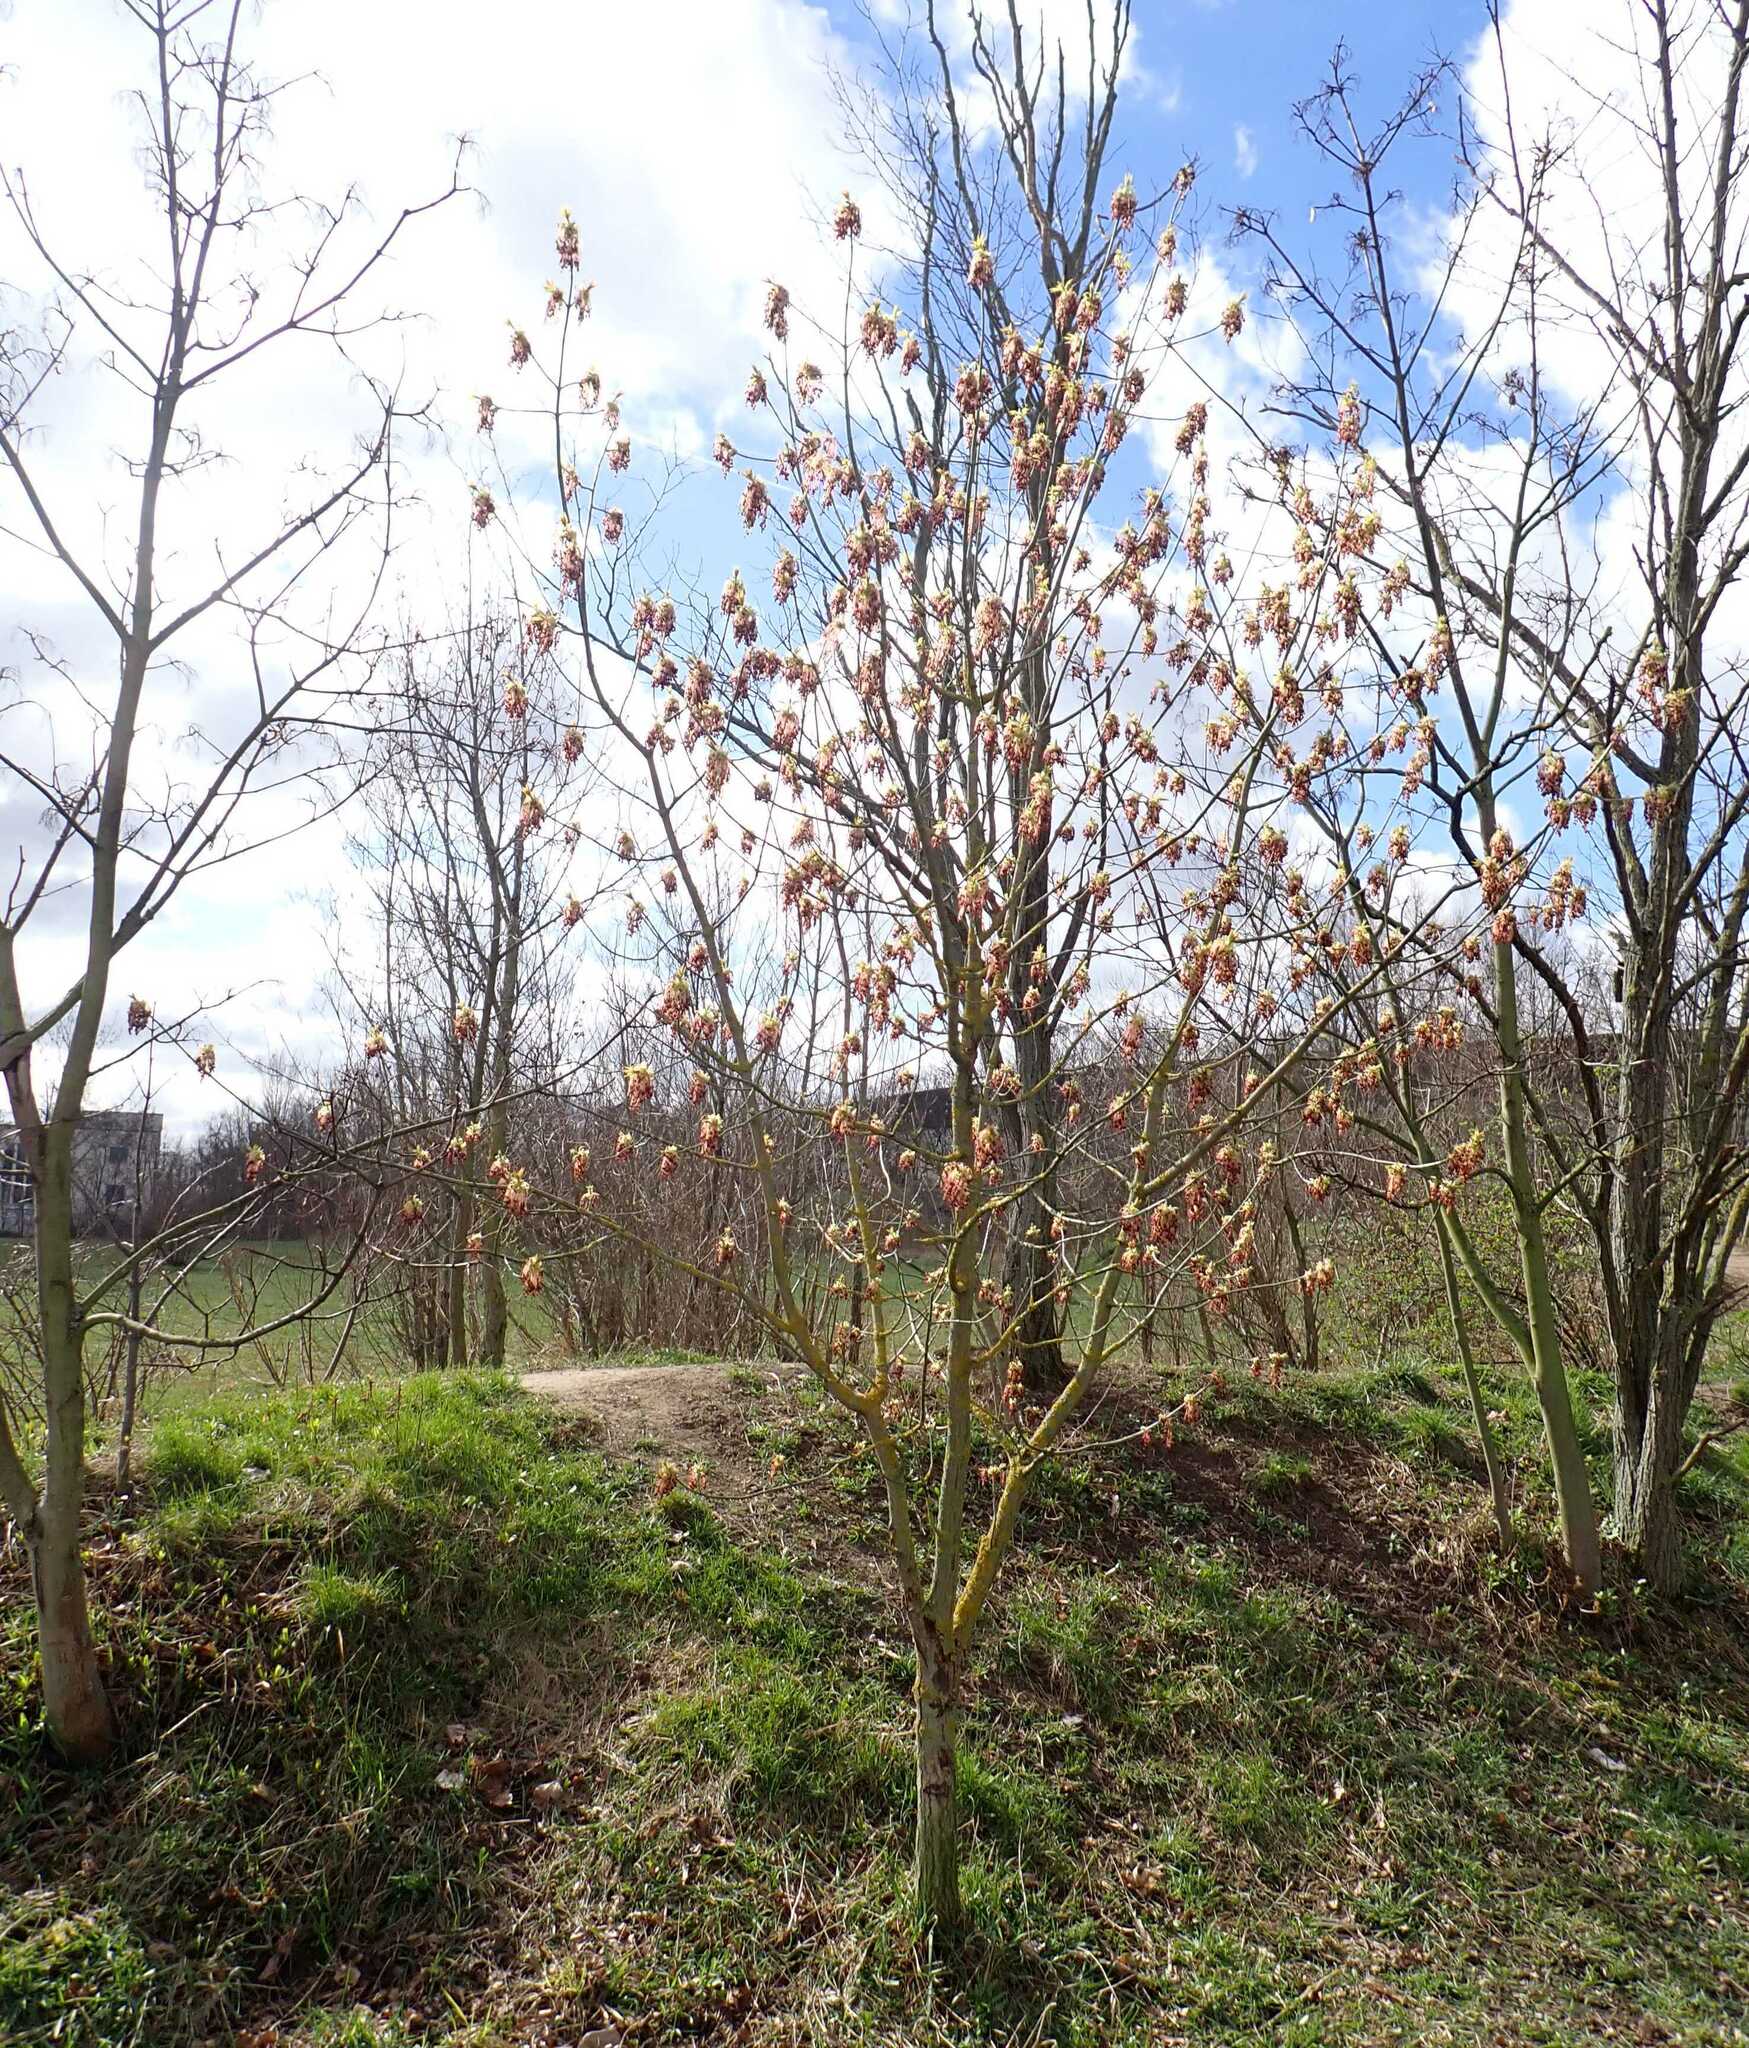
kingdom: Plantae
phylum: Tracheophyta
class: Magnoliopsida
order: Sapindales
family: Sapindaceae
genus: Acer
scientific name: Acer negundo
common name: Ashleaf maple
